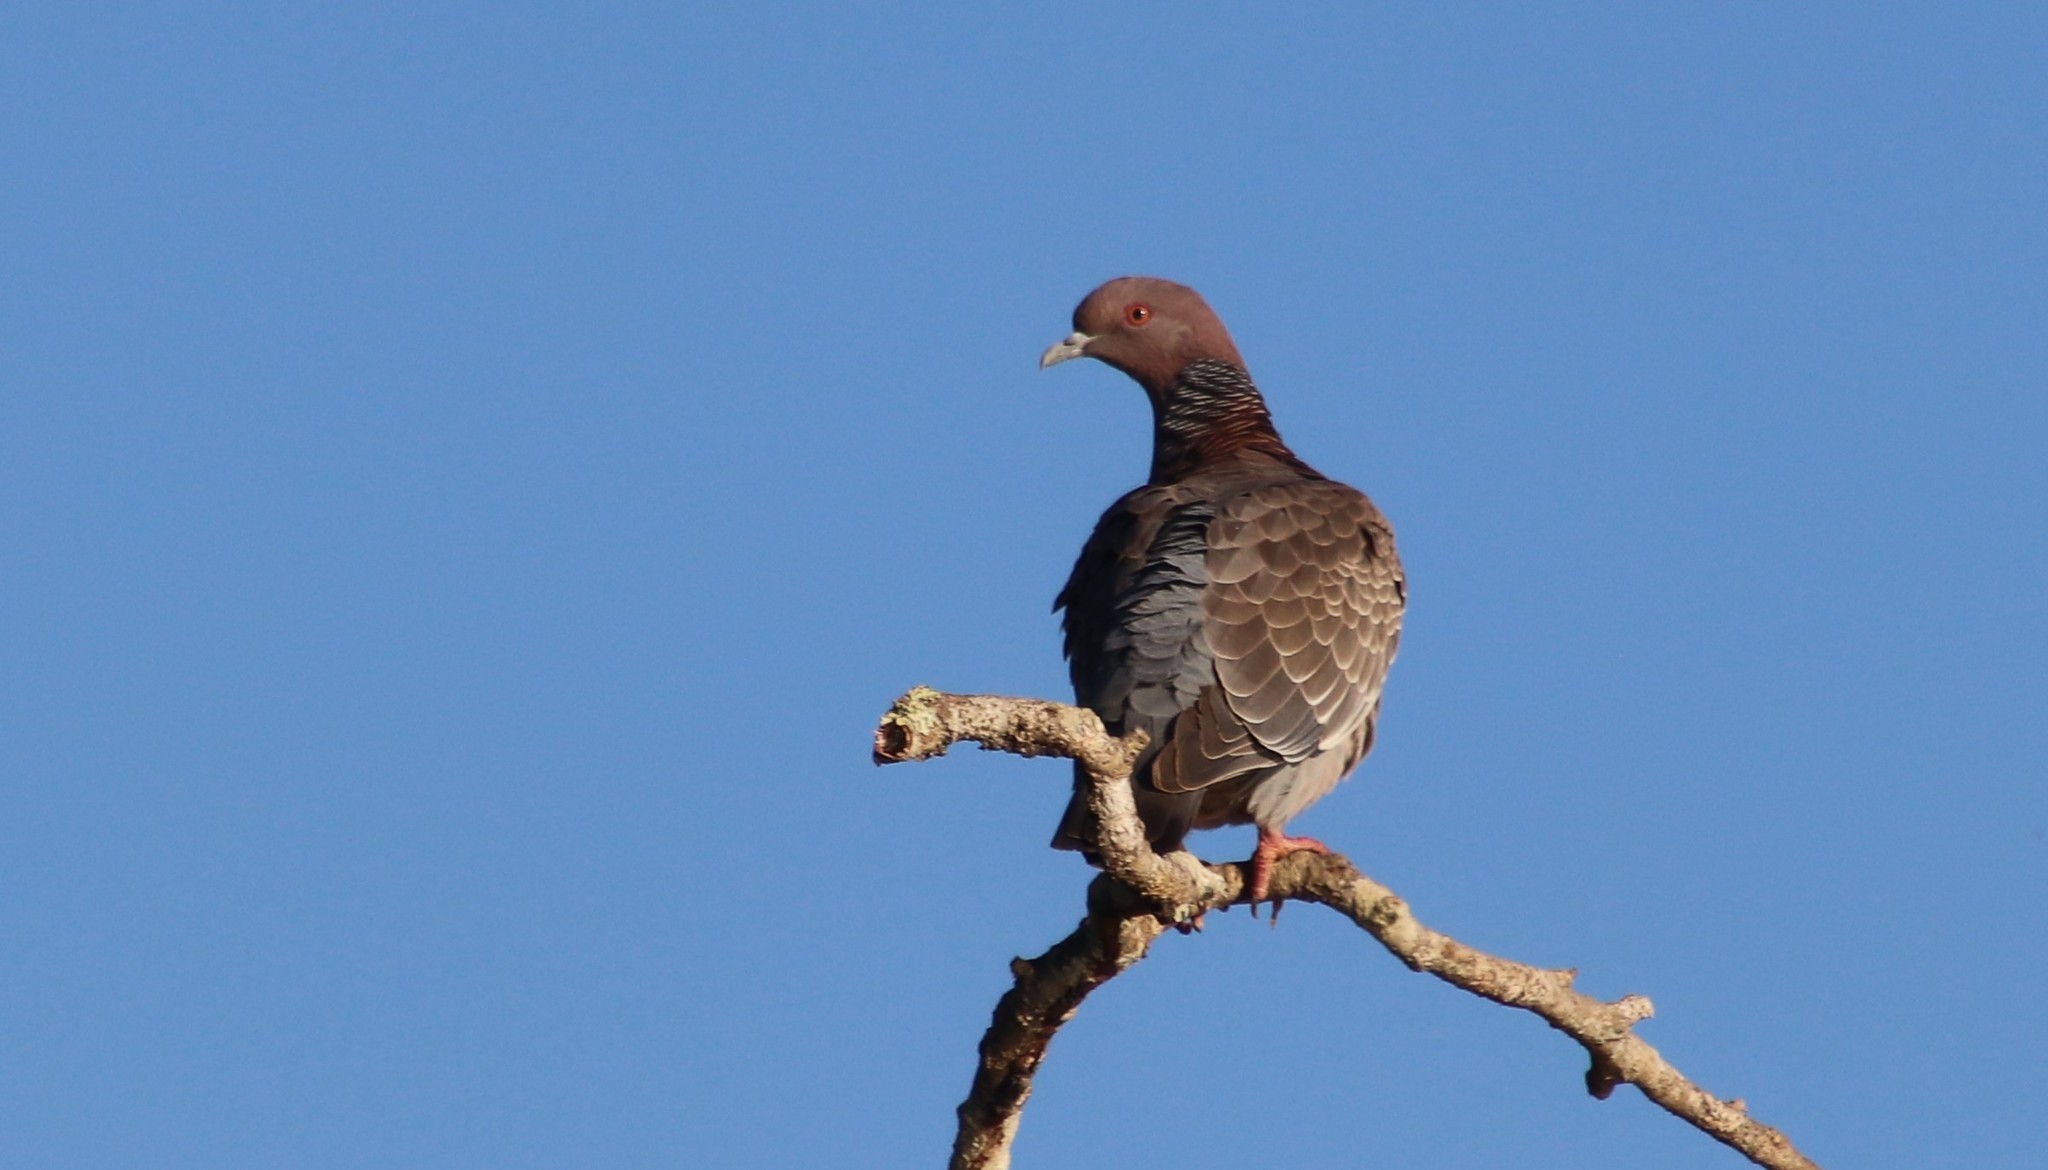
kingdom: Animalia
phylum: Chordata
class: Aves
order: Columbiformes
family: Columbidae
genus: Patagioenas
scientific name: Patagioenas picazuro
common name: Picazuro pigeon
